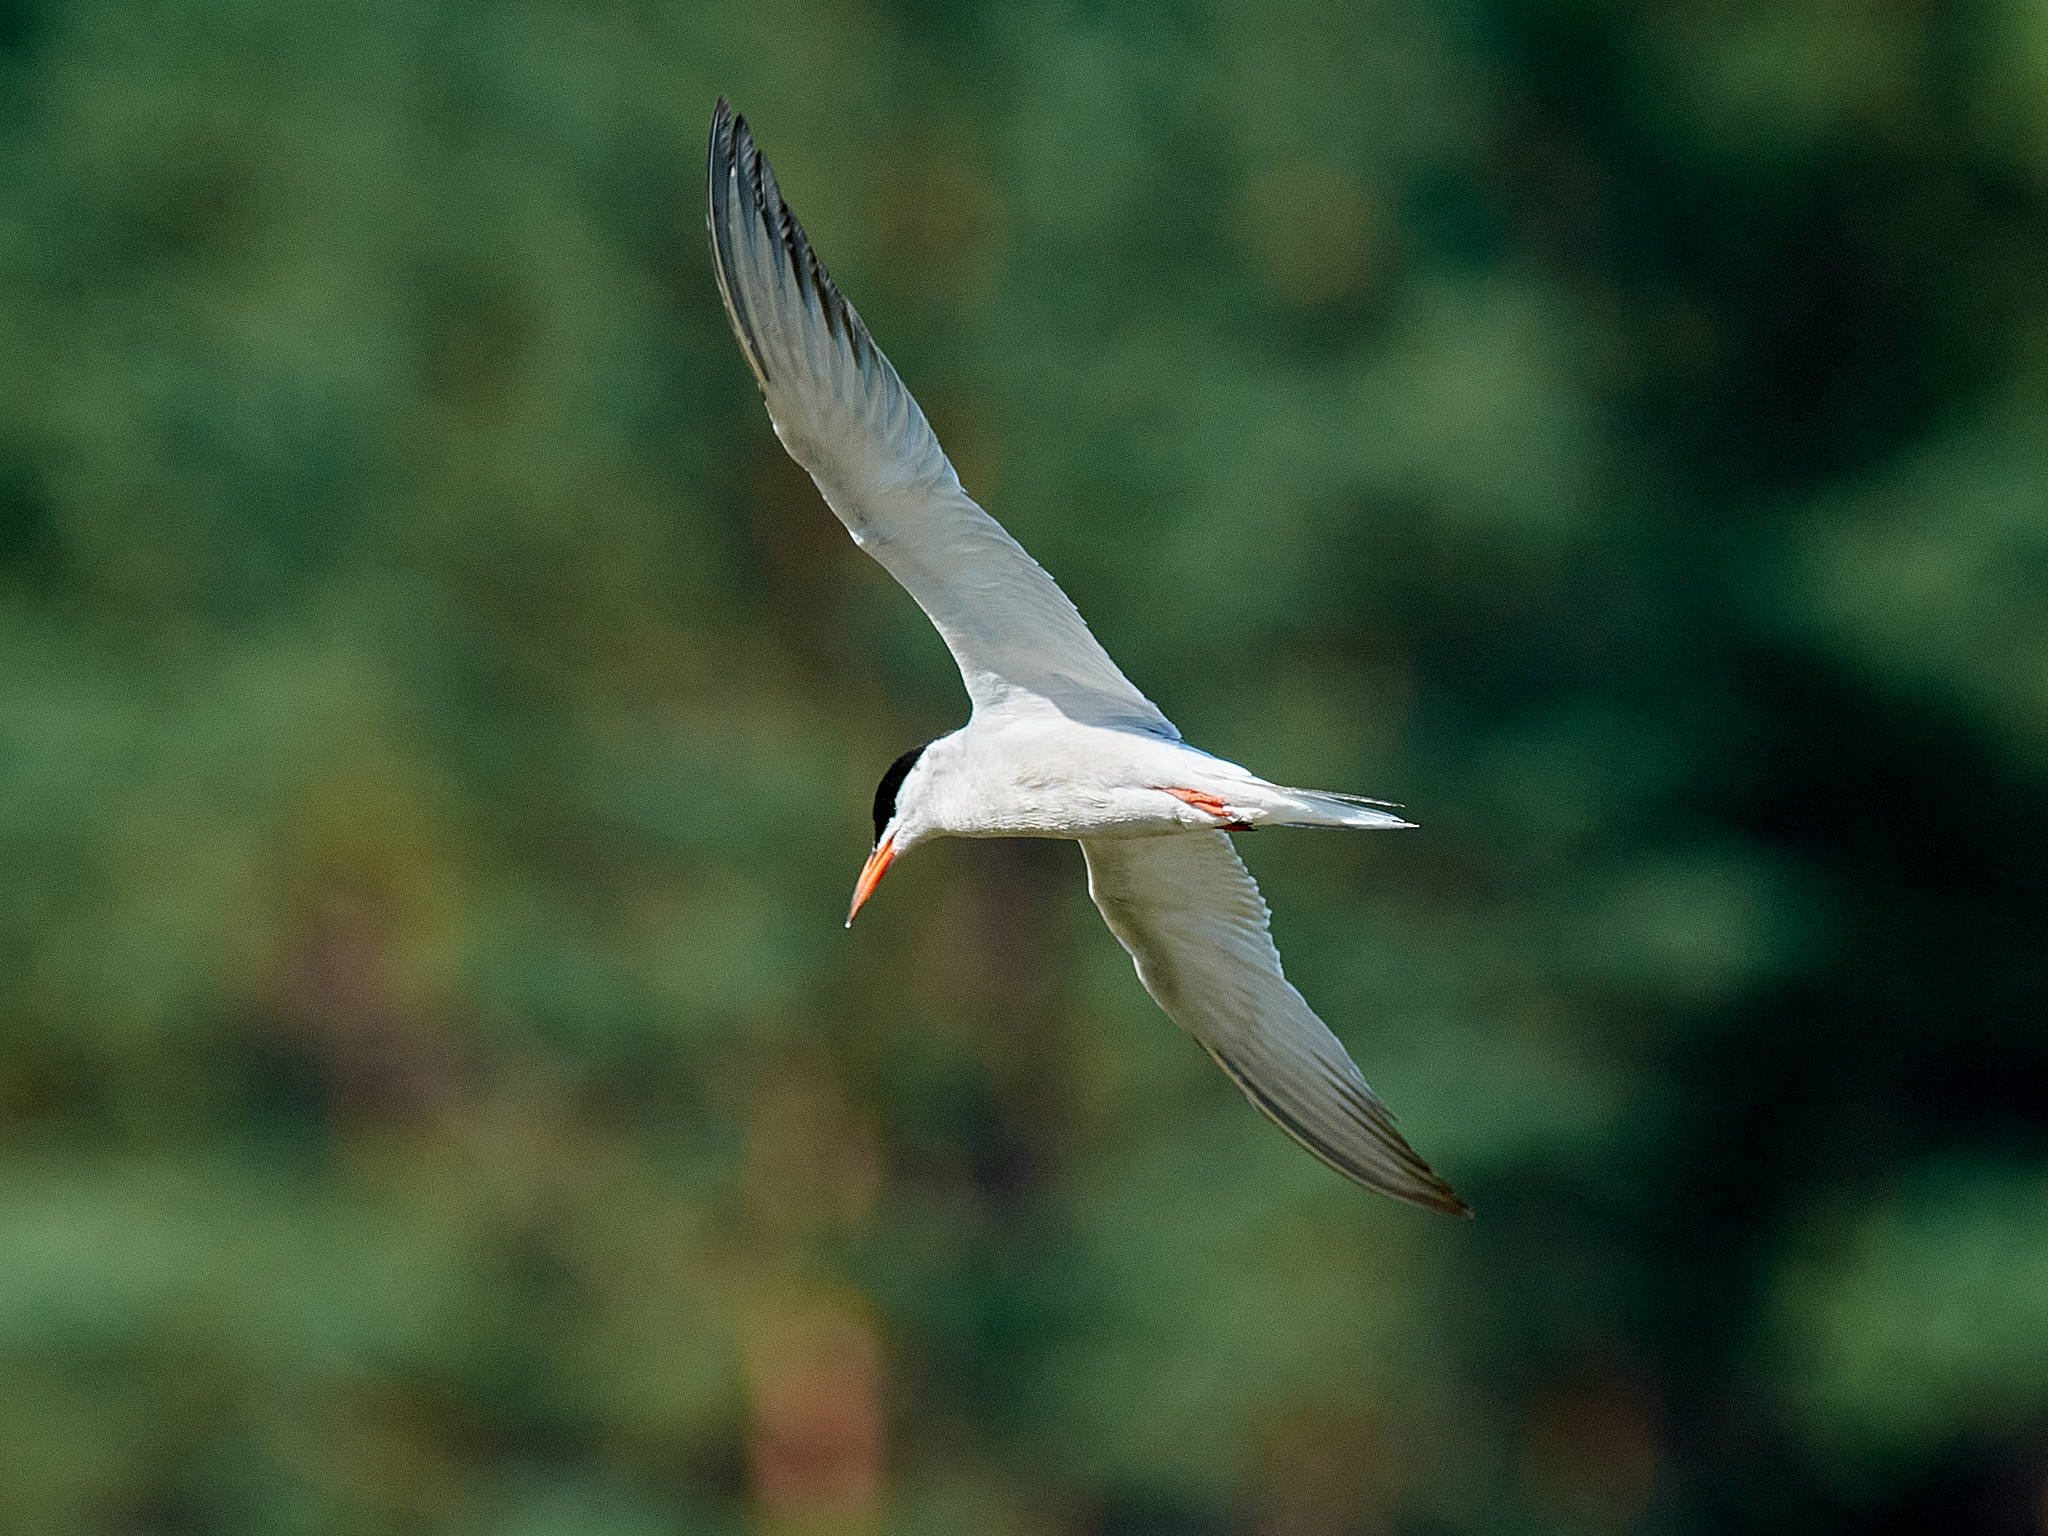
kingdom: Animalia
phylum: Chordata
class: Aves
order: Charadriiformes
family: Laridae
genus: Sterna
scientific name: Sterna hirundo
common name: Common tern
